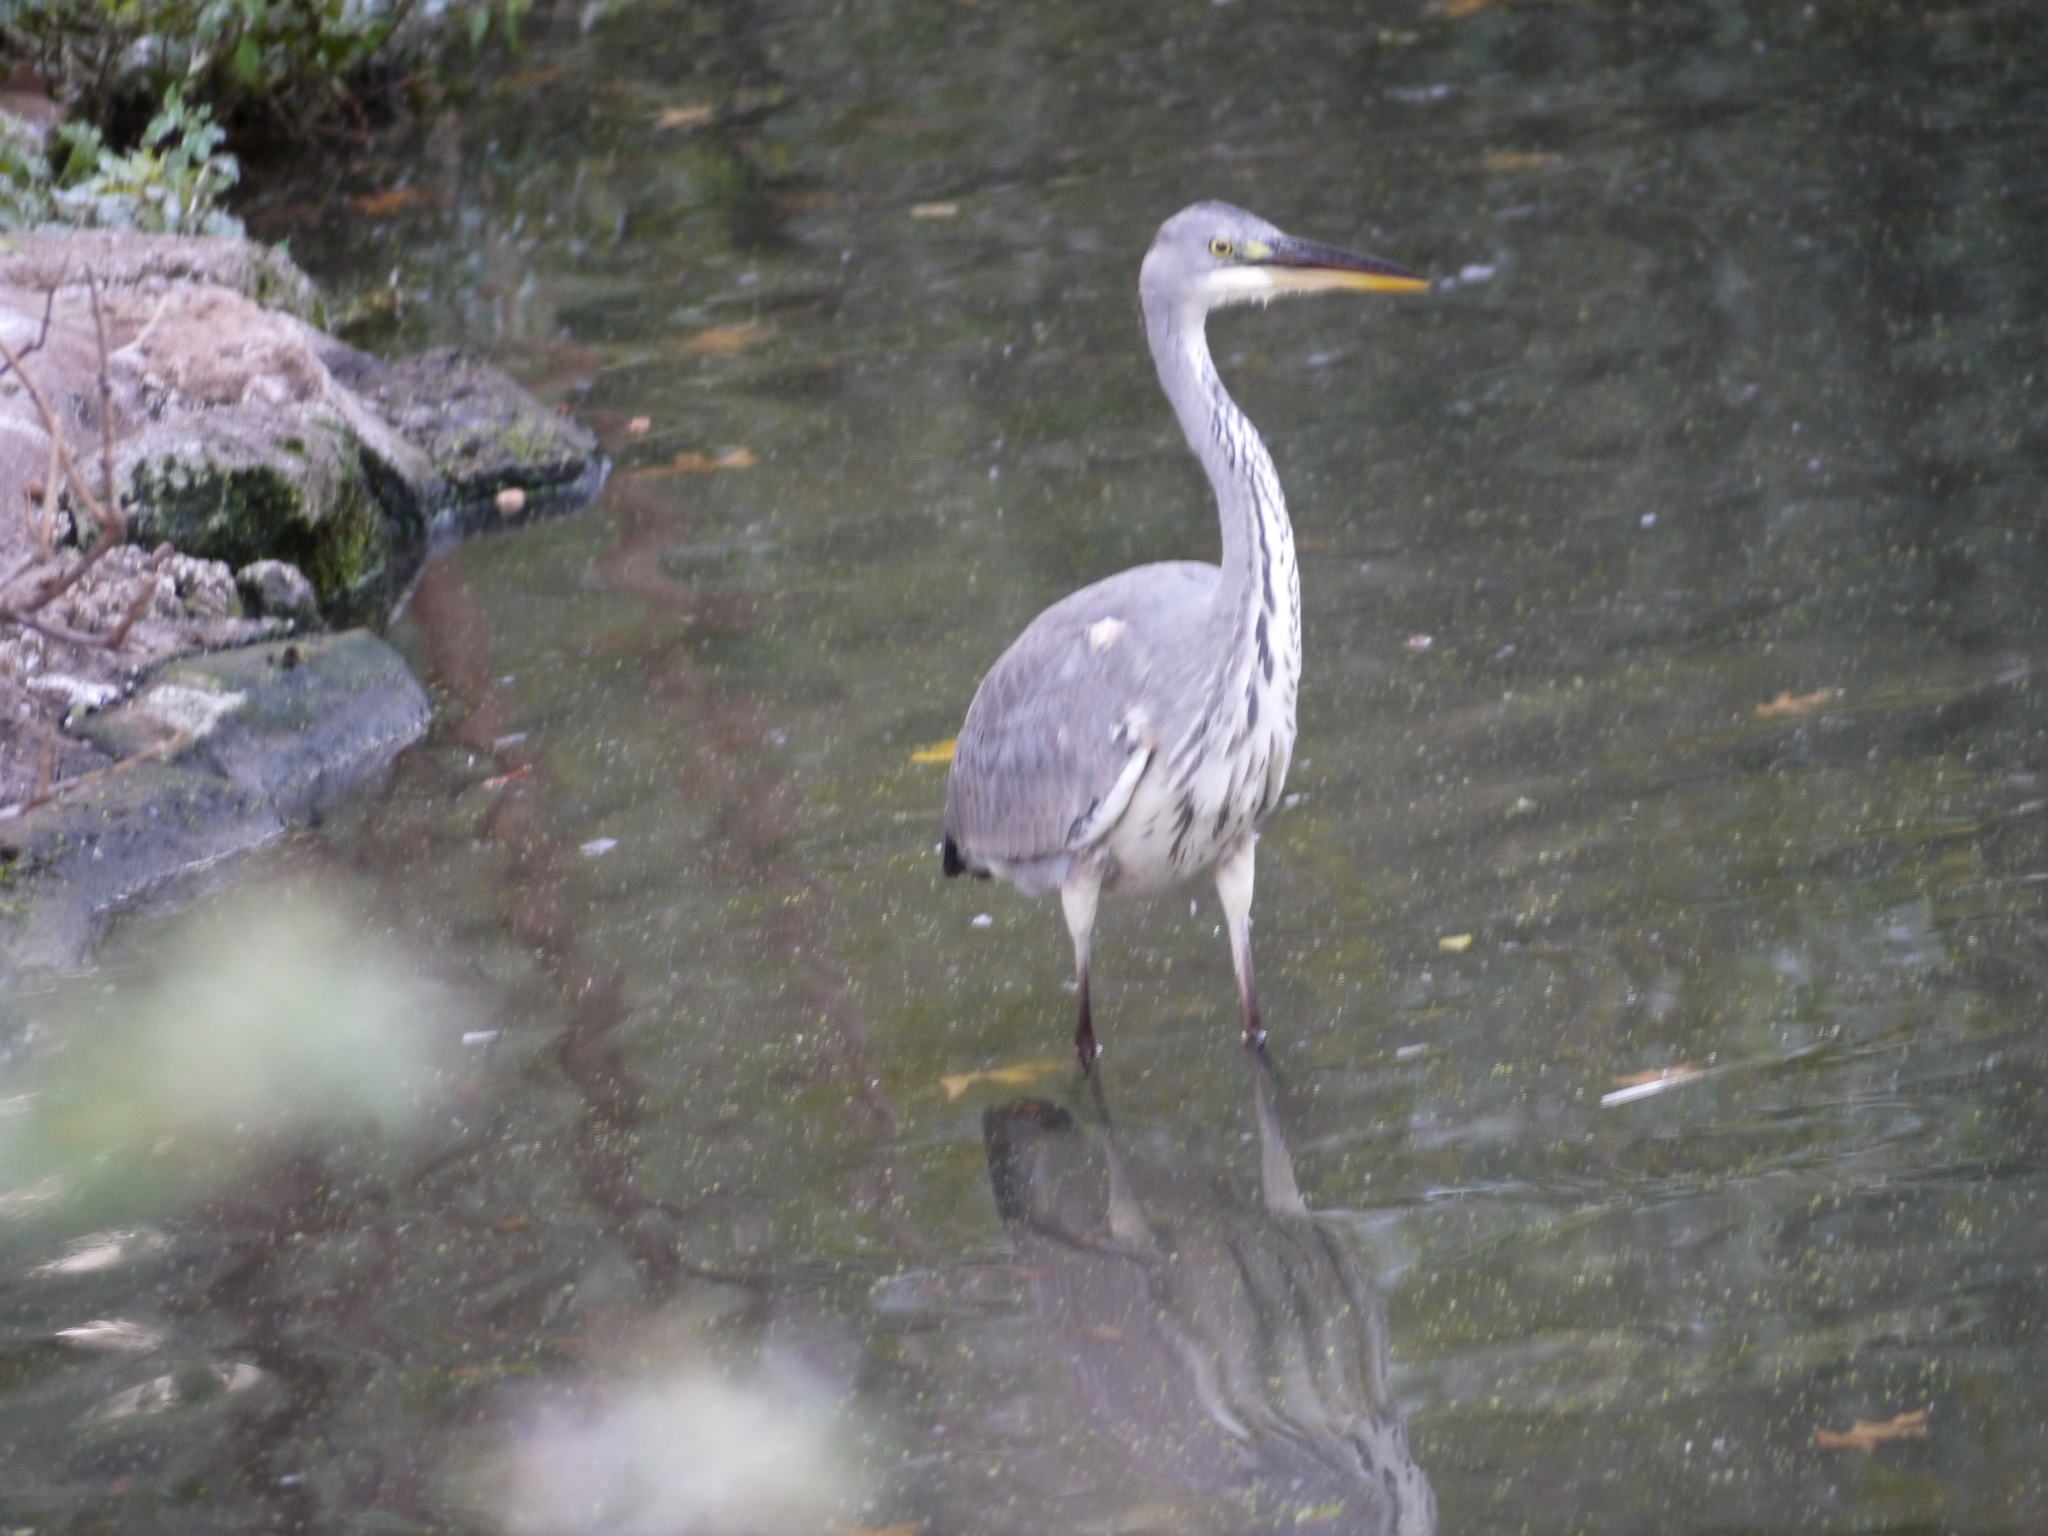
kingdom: Animalia
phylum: Chordata
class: Aves
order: Pelecaniformes
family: Ardeidae
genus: Ardea
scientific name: Ardea cinerea
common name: Grey heron
